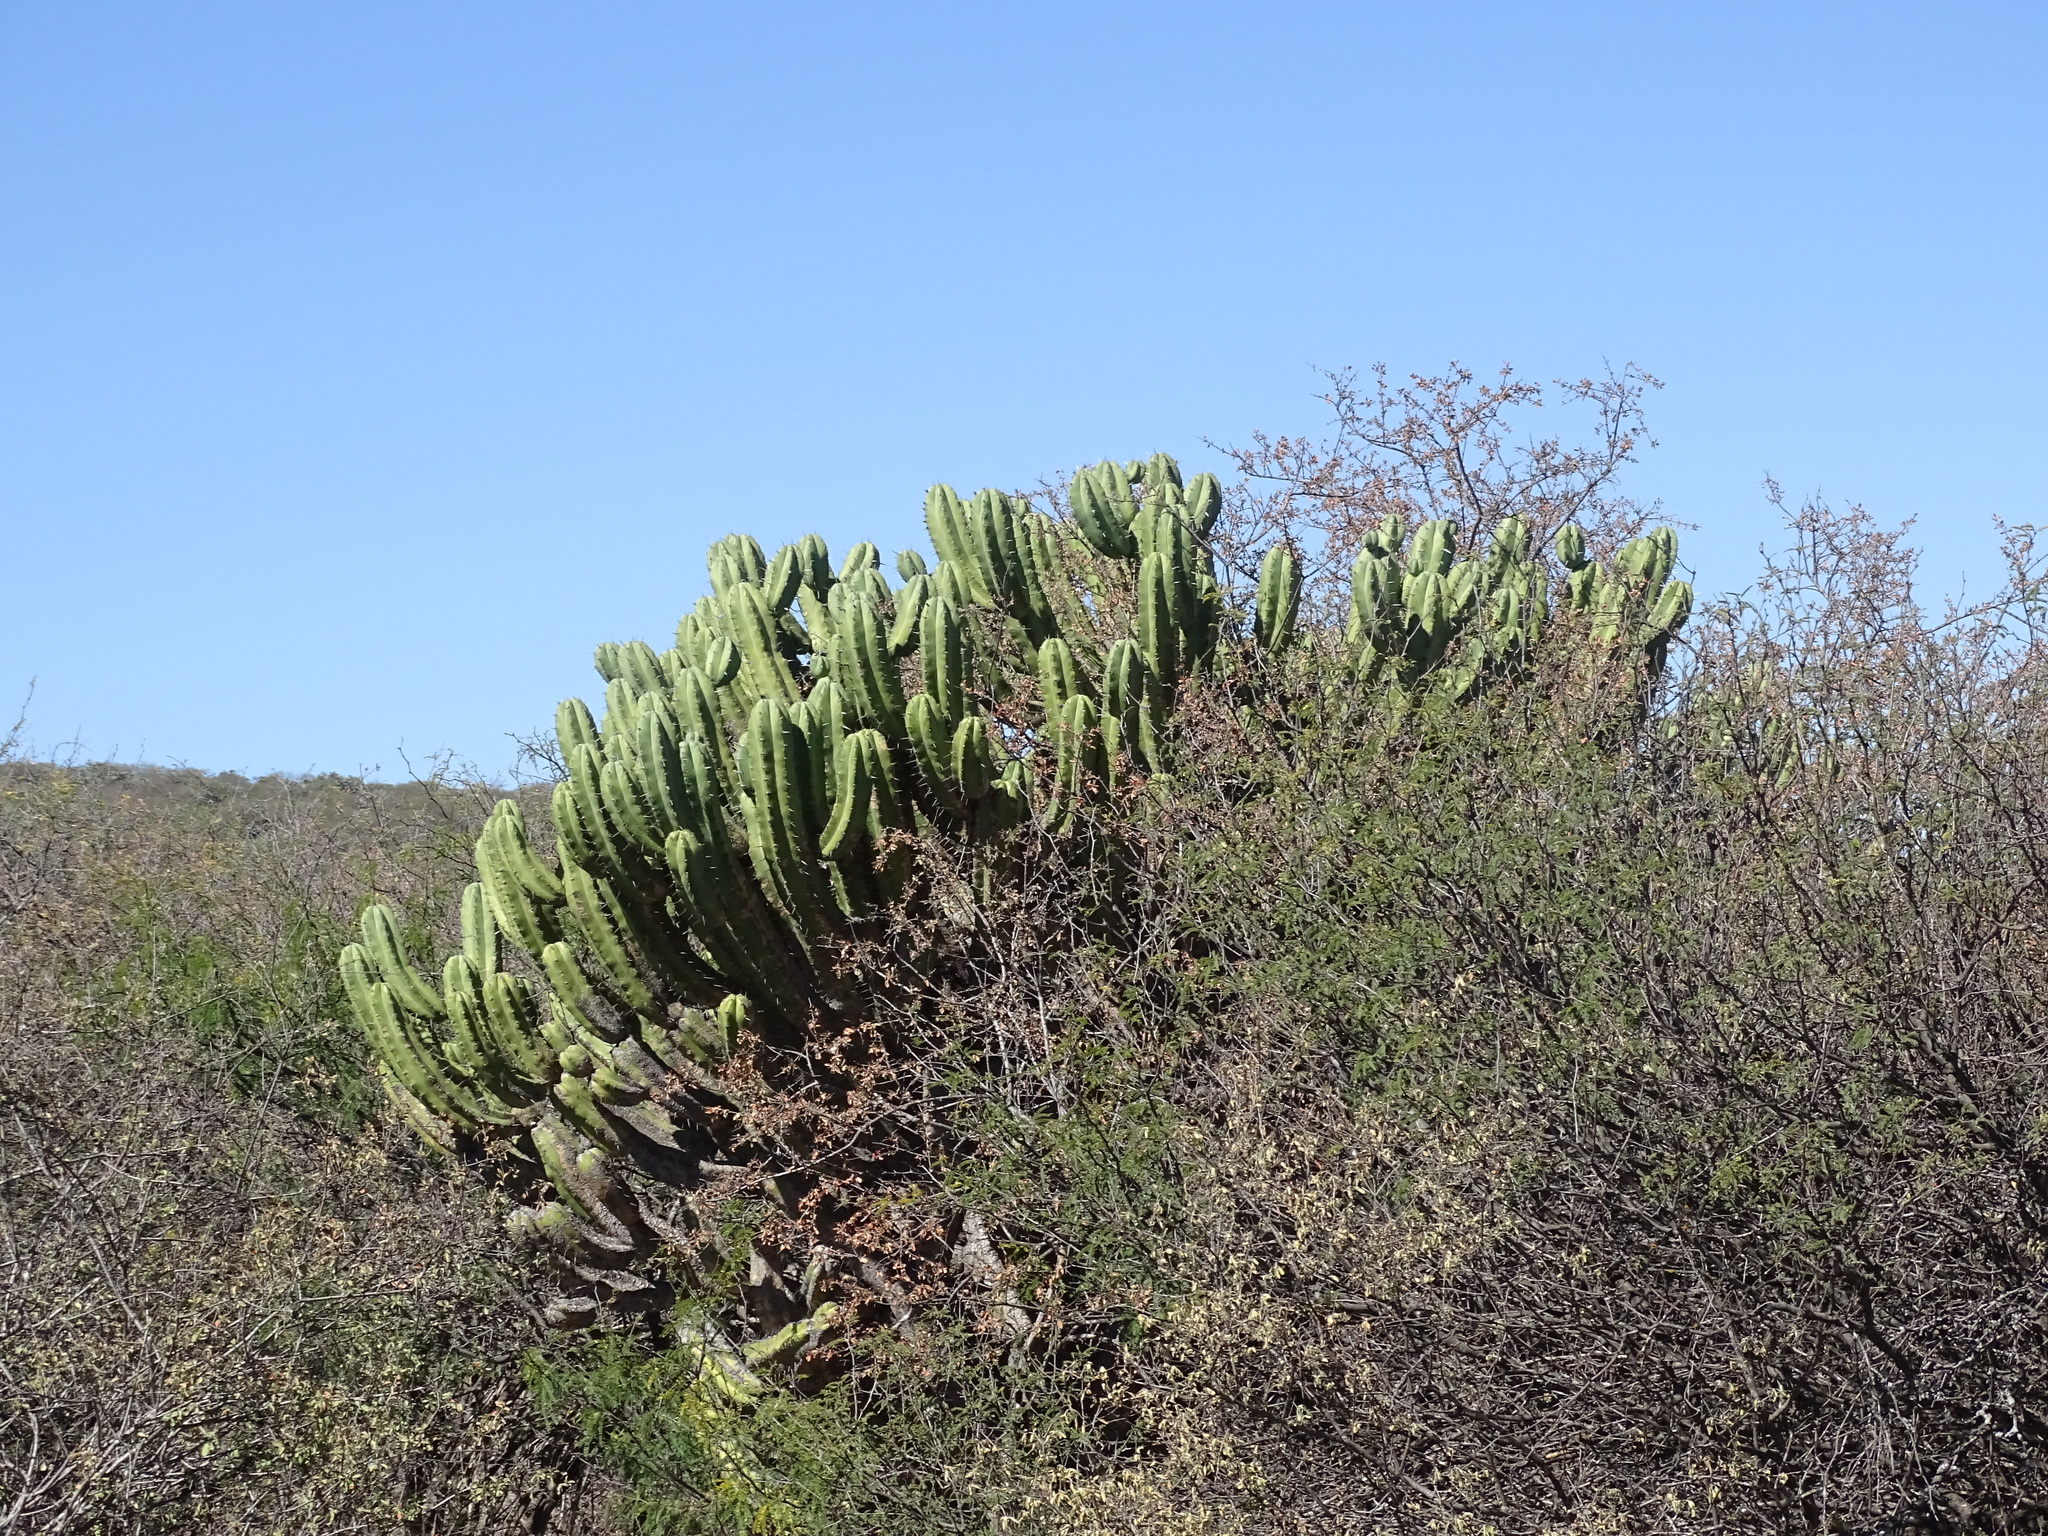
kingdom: Plantae
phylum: Tracheophyta
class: Magnoliopsida
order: Caryophyllales
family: Cactaceae
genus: Myrtillocactus
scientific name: Myrtillocactus geometrizans
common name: Bilberry cactus
